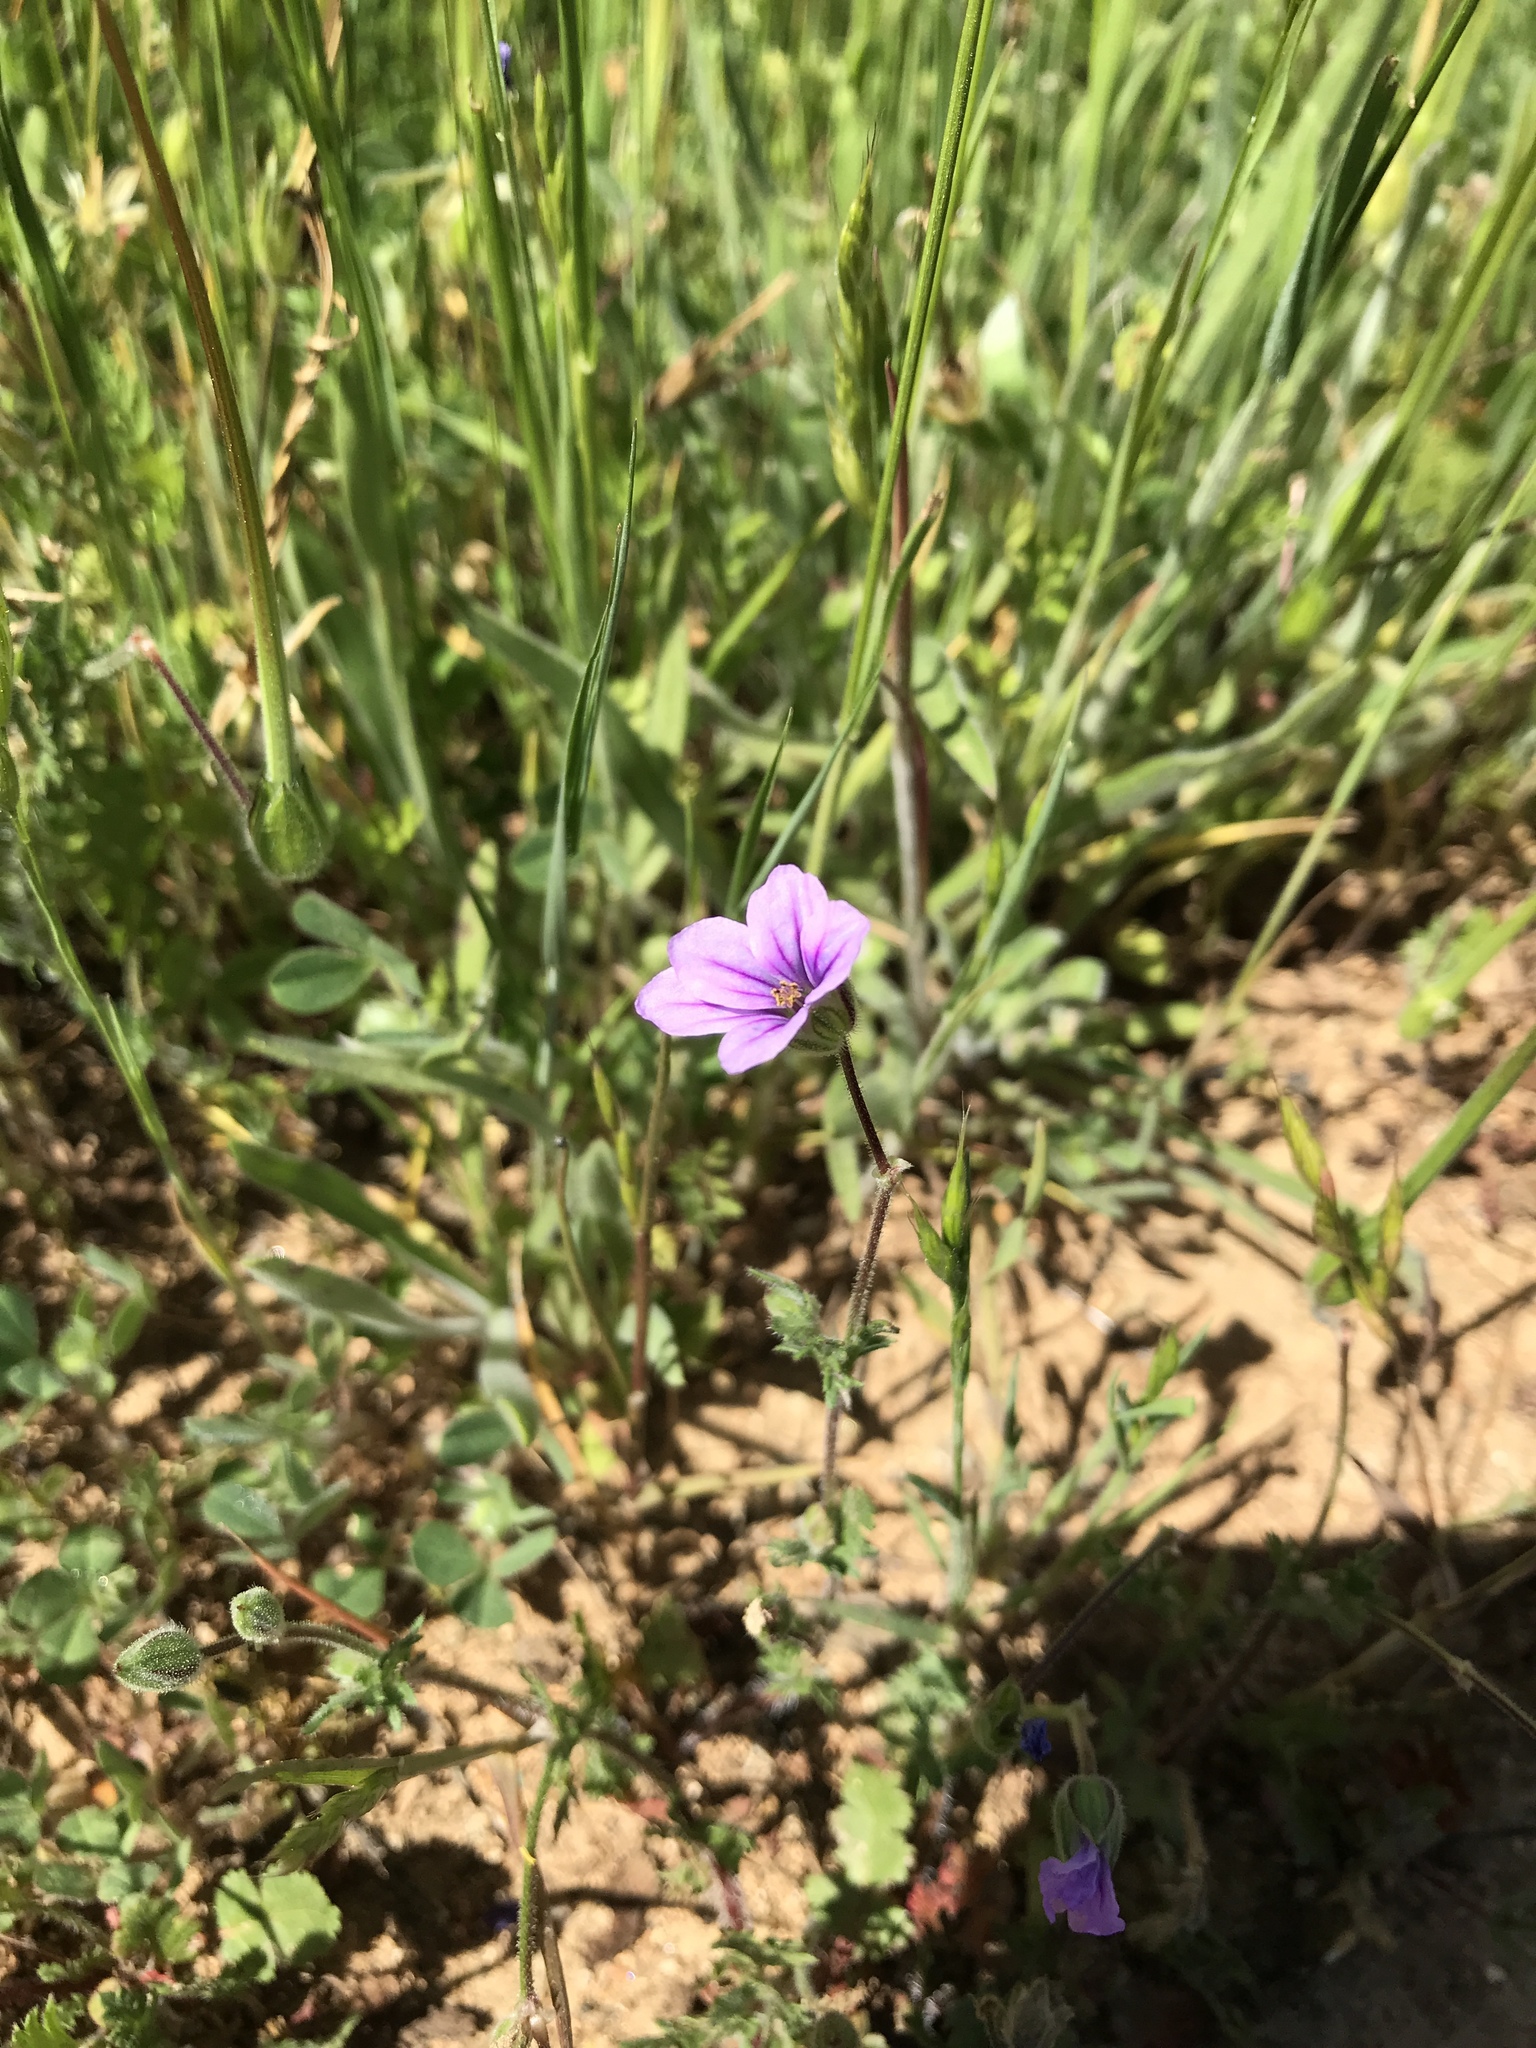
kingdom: Plantae
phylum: Tracheophyta
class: Magnoliopsida
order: Geraniales
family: Geraniaceae
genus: Erodium
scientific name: Erodium botrys
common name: Mediterranean stork's-bill
